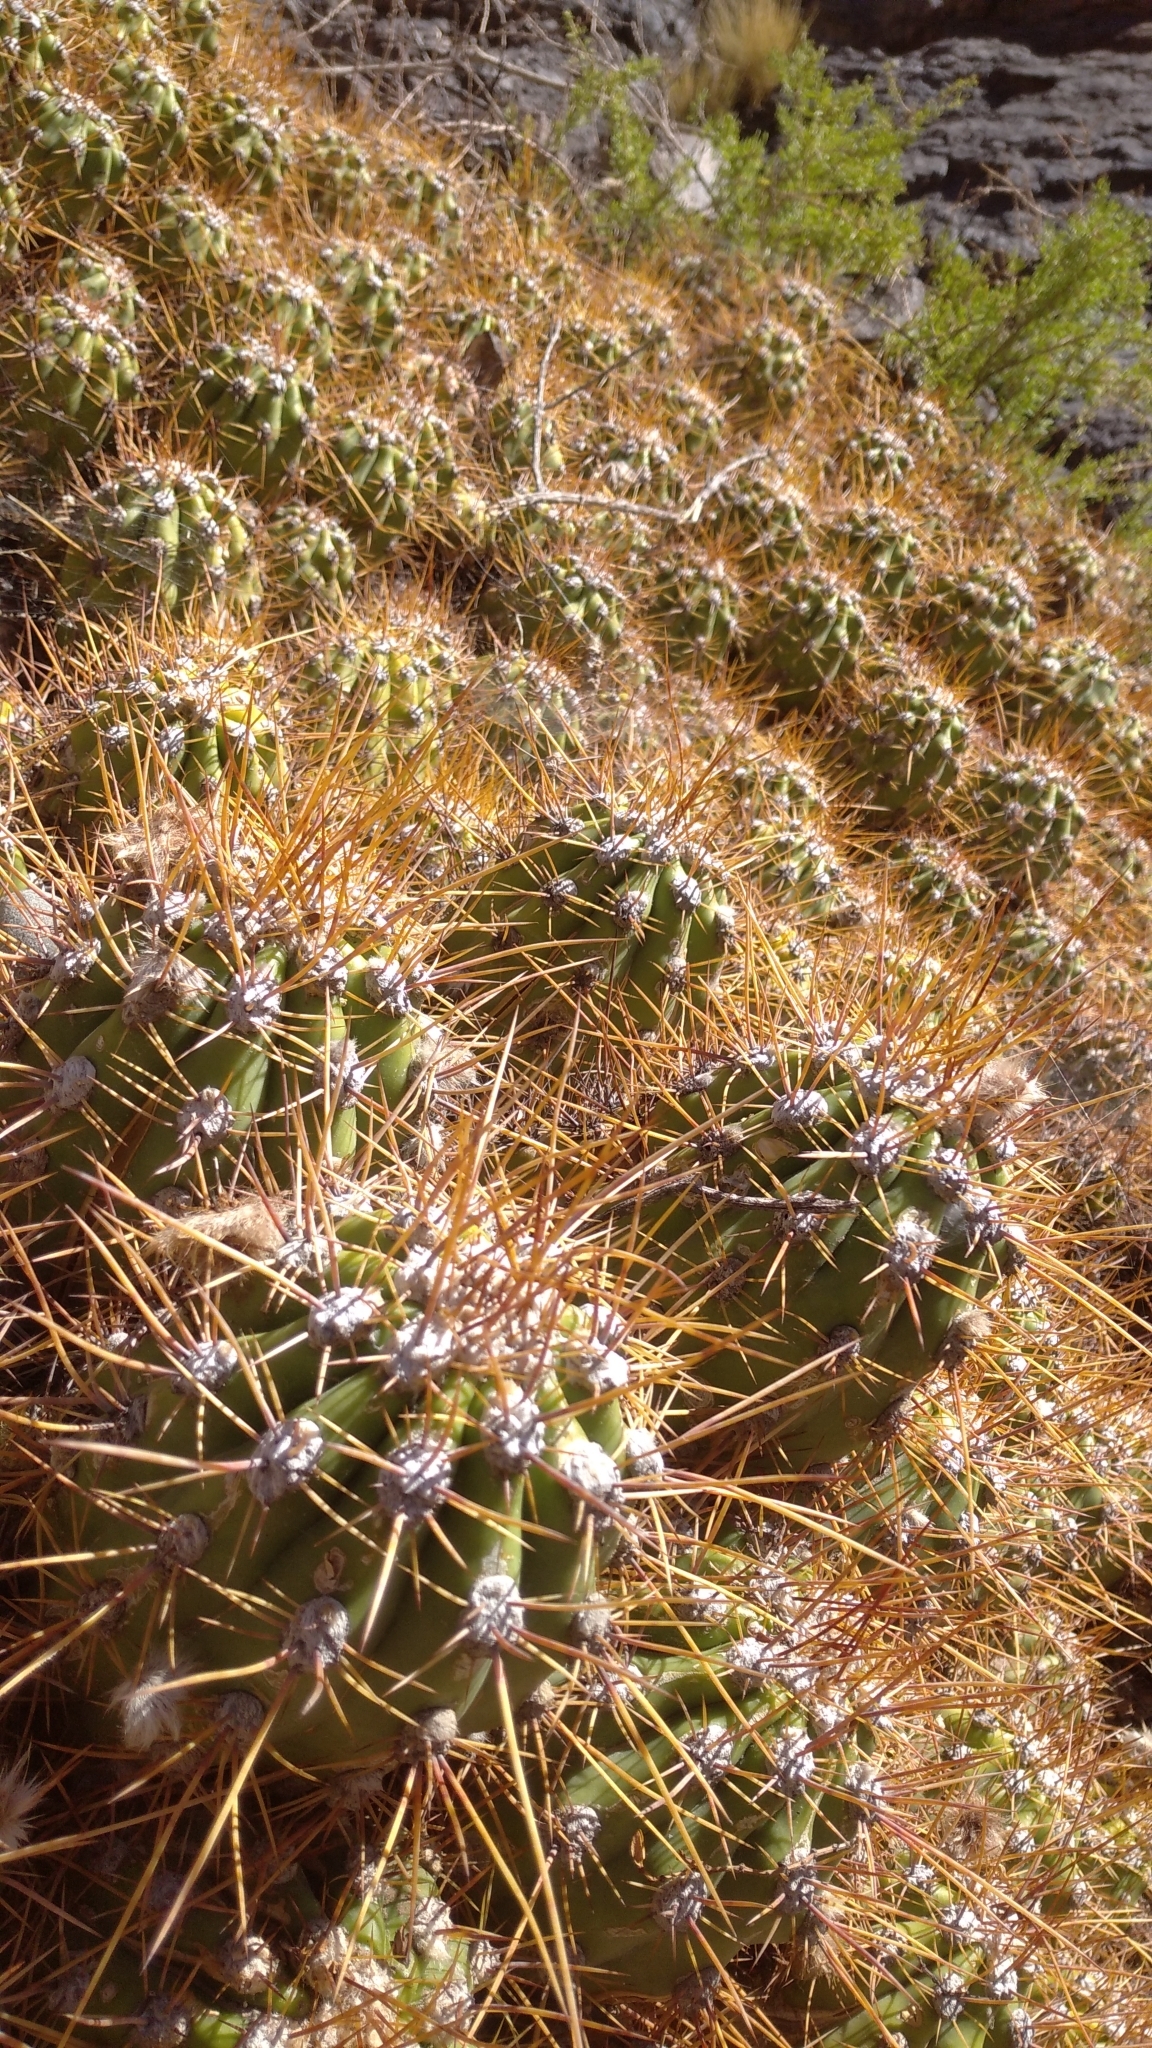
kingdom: Plantae
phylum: Tracheophyta
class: Magnoliopsida
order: Caryophyllales
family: Cactaceae
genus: Soehrensia
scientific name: Soehrensia candicans
